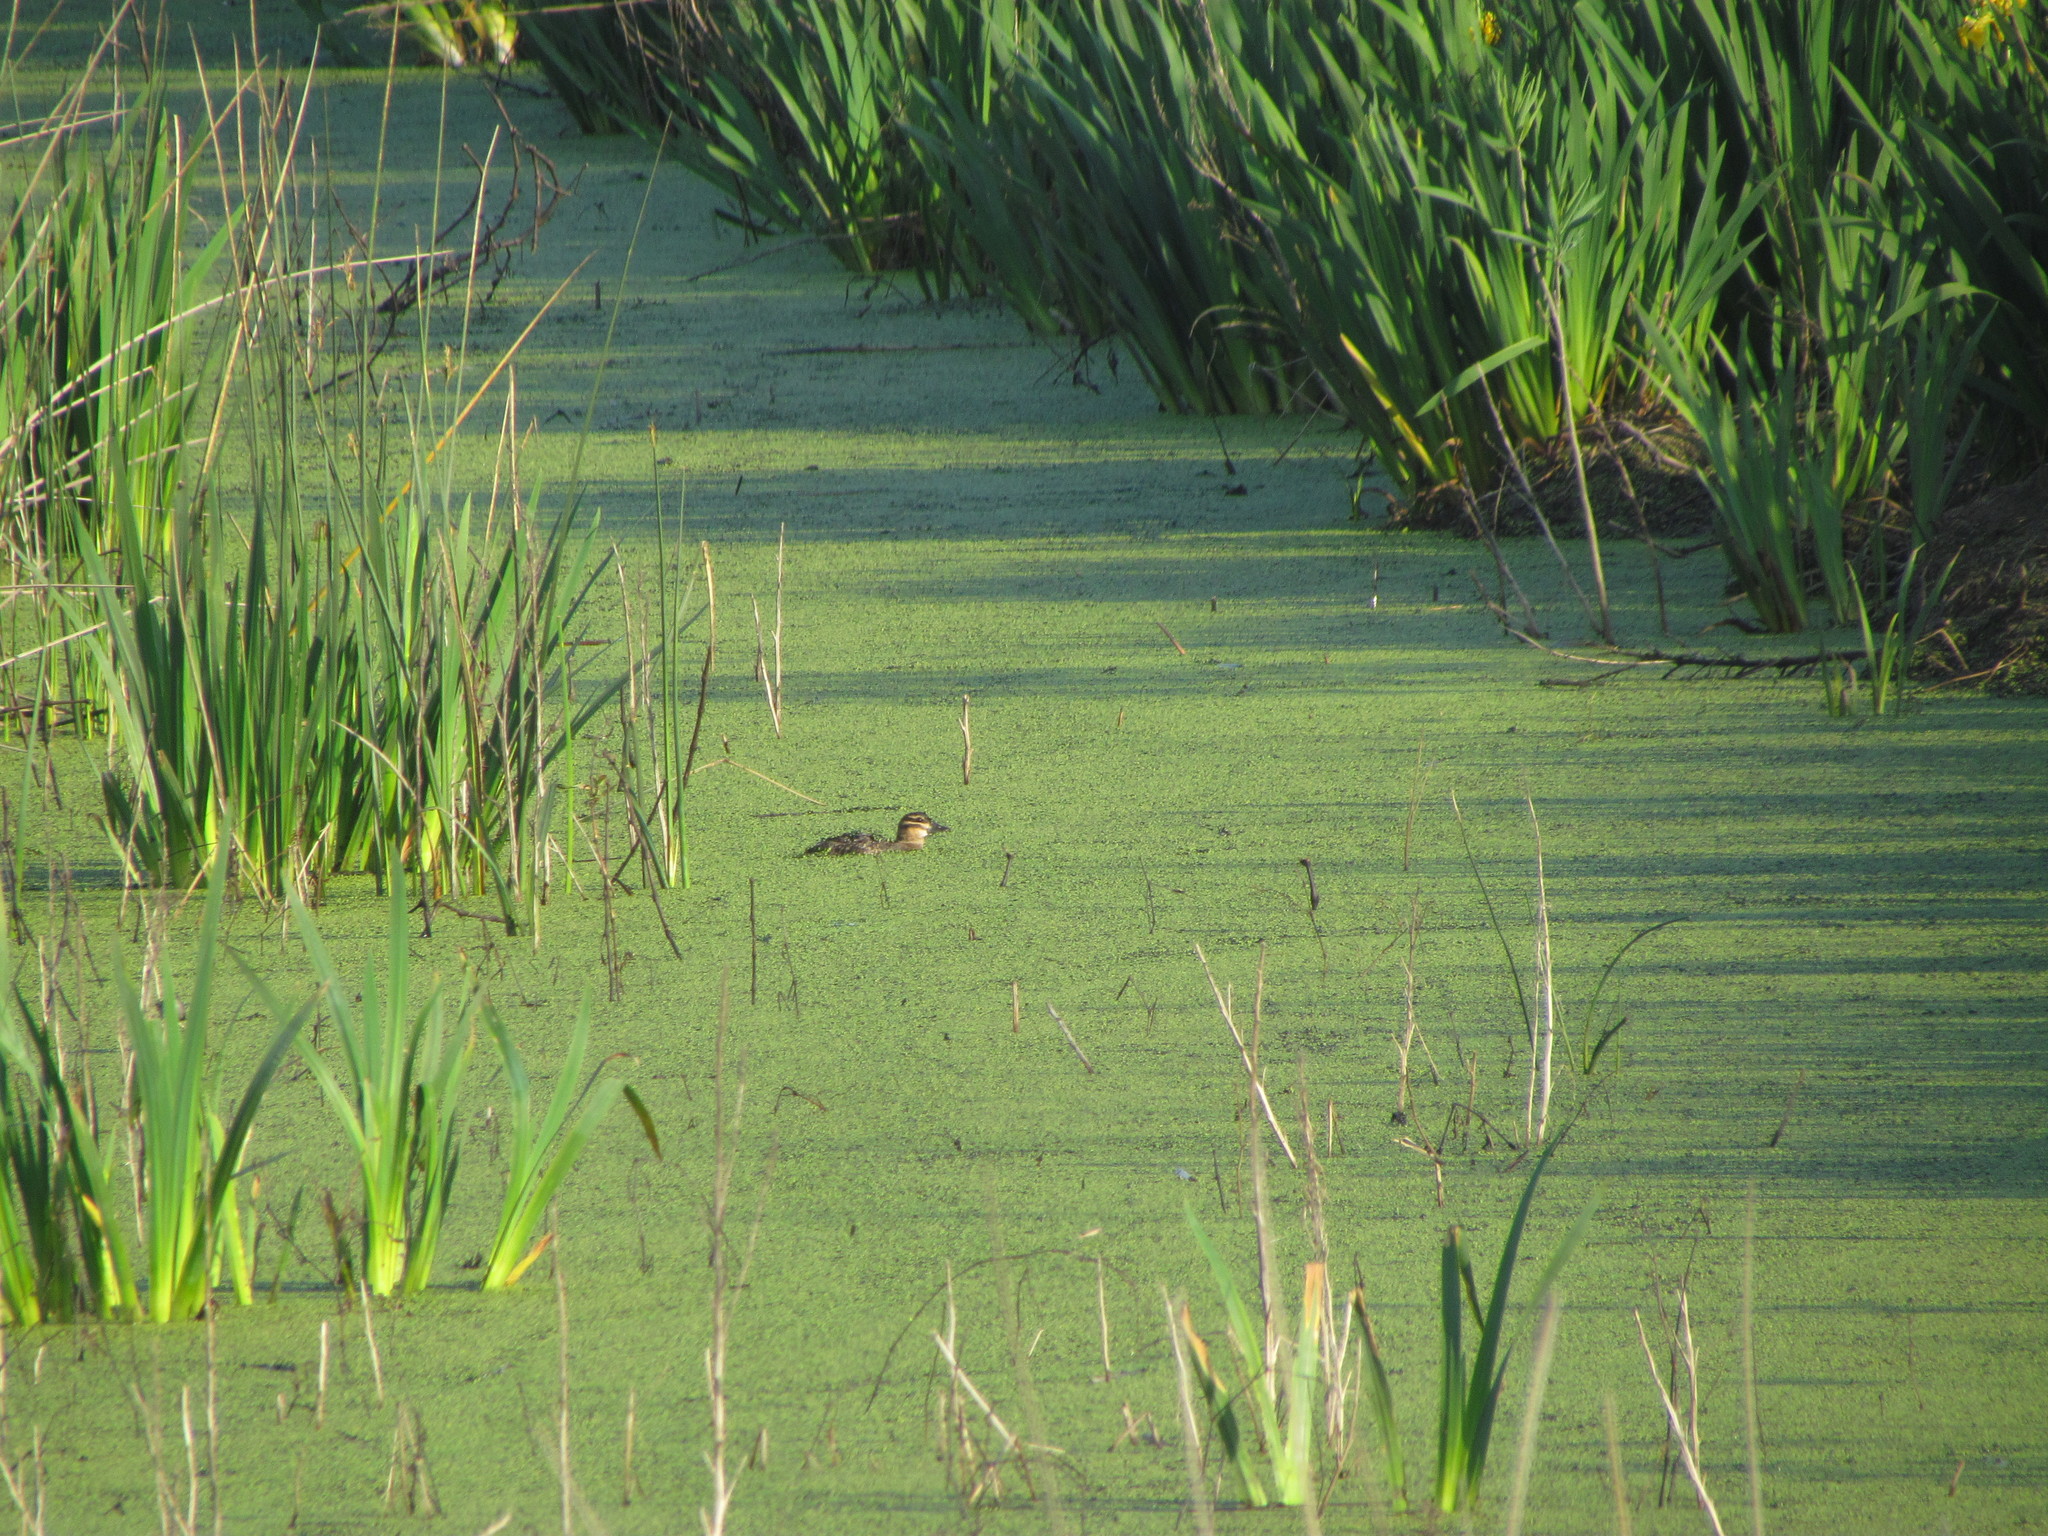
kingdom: Animalia
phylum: Chordata
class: Aves
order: Anseriformes
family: Anatidae
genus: Nomonyx
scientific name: Nomonyx dominicus
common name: Masked duck
